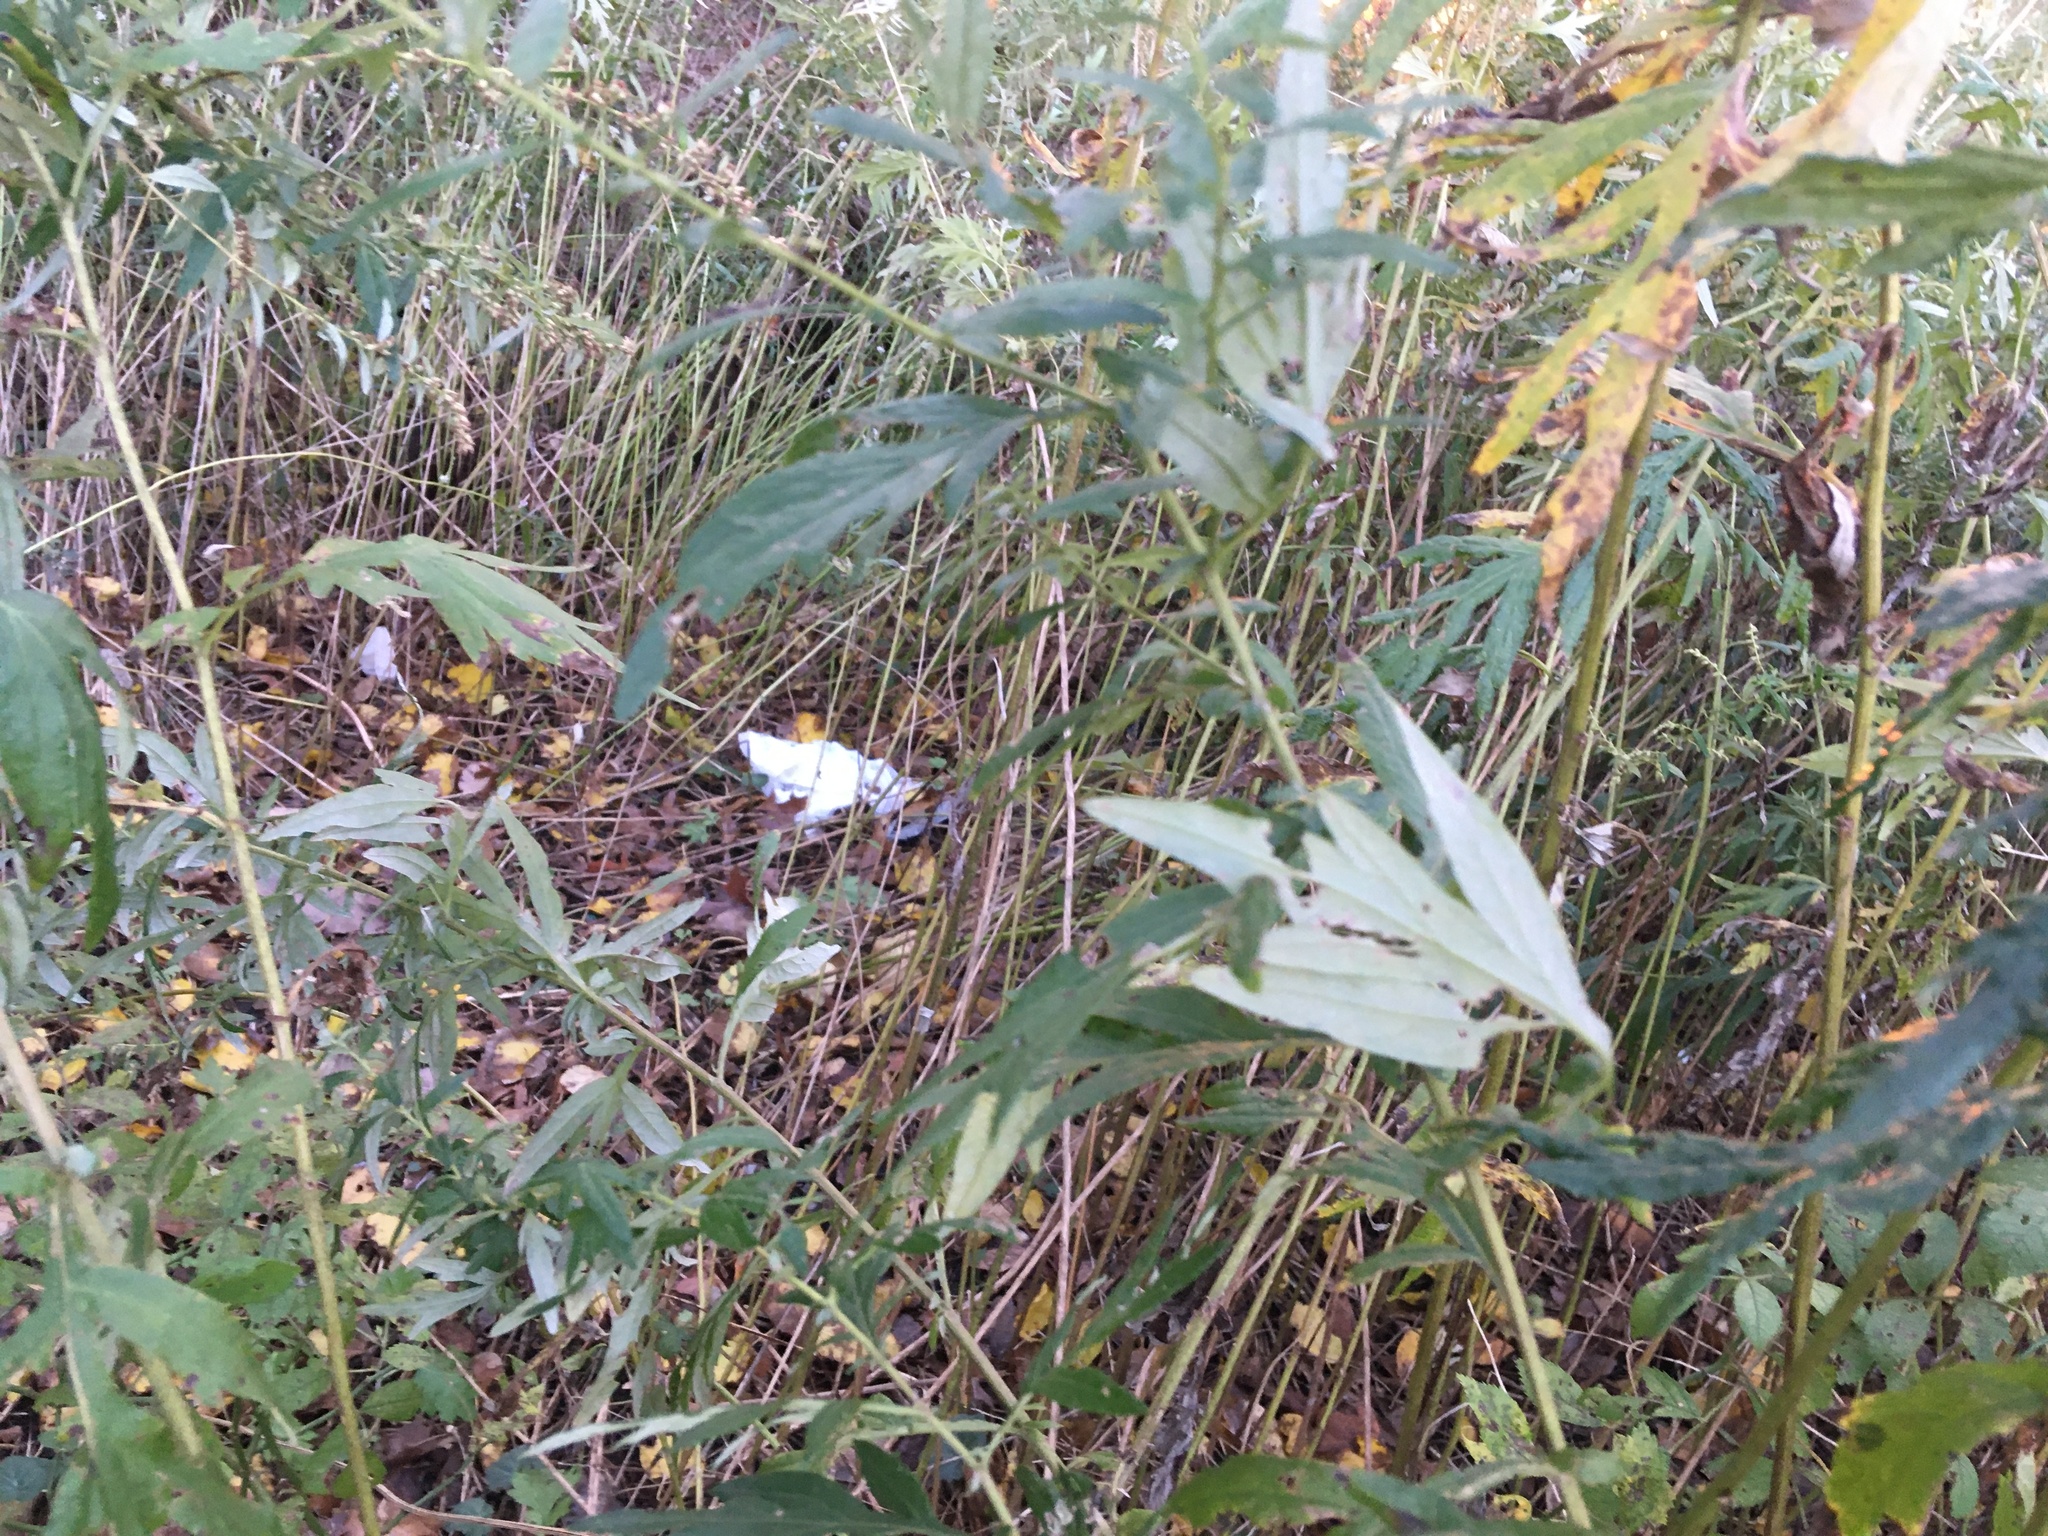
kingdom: Plantae
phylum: Tracheophyta
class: Magnoliopsida
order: Asterales
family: Asteraceae
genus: Artemisia
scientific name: Artemisia vulgaris
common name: Mugwort
